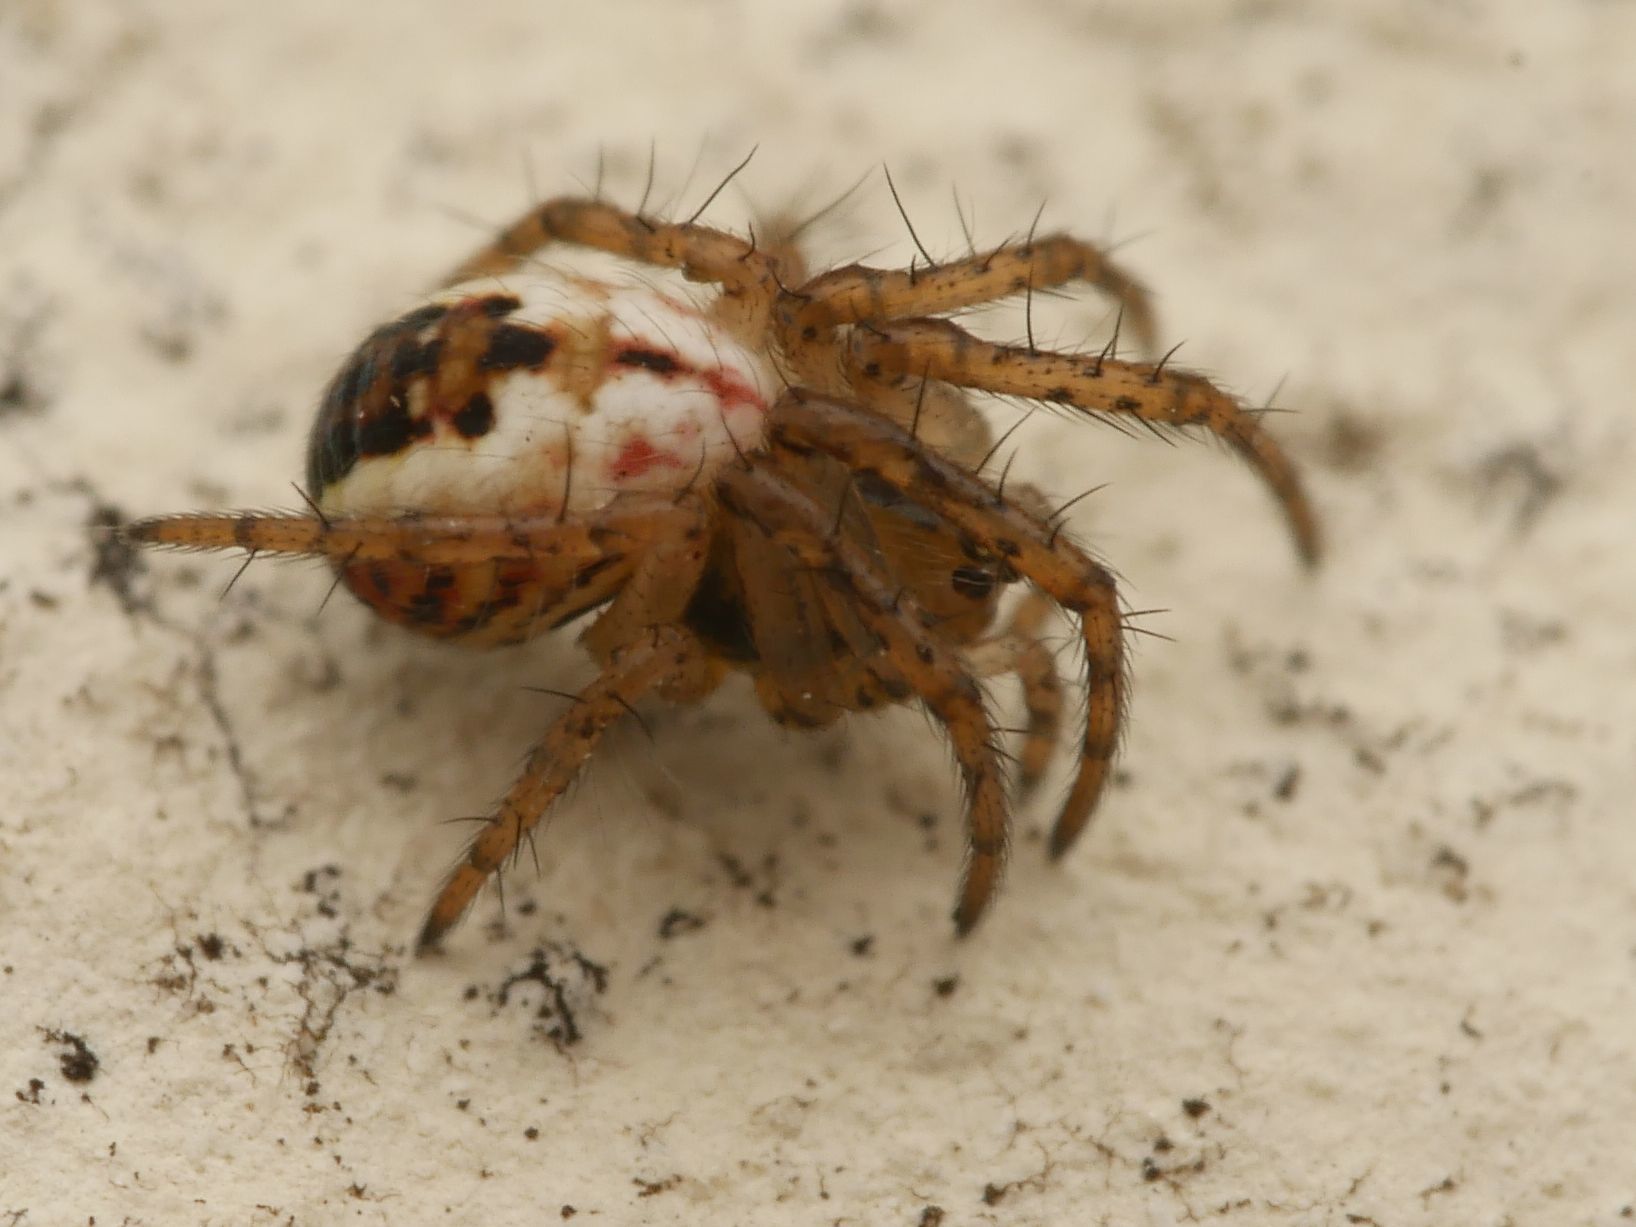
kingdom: Animalia
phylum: Arthropoda
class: Arachnida
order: Araneae
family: Araneidae
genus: Mangora
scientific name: Mangora acalypha
